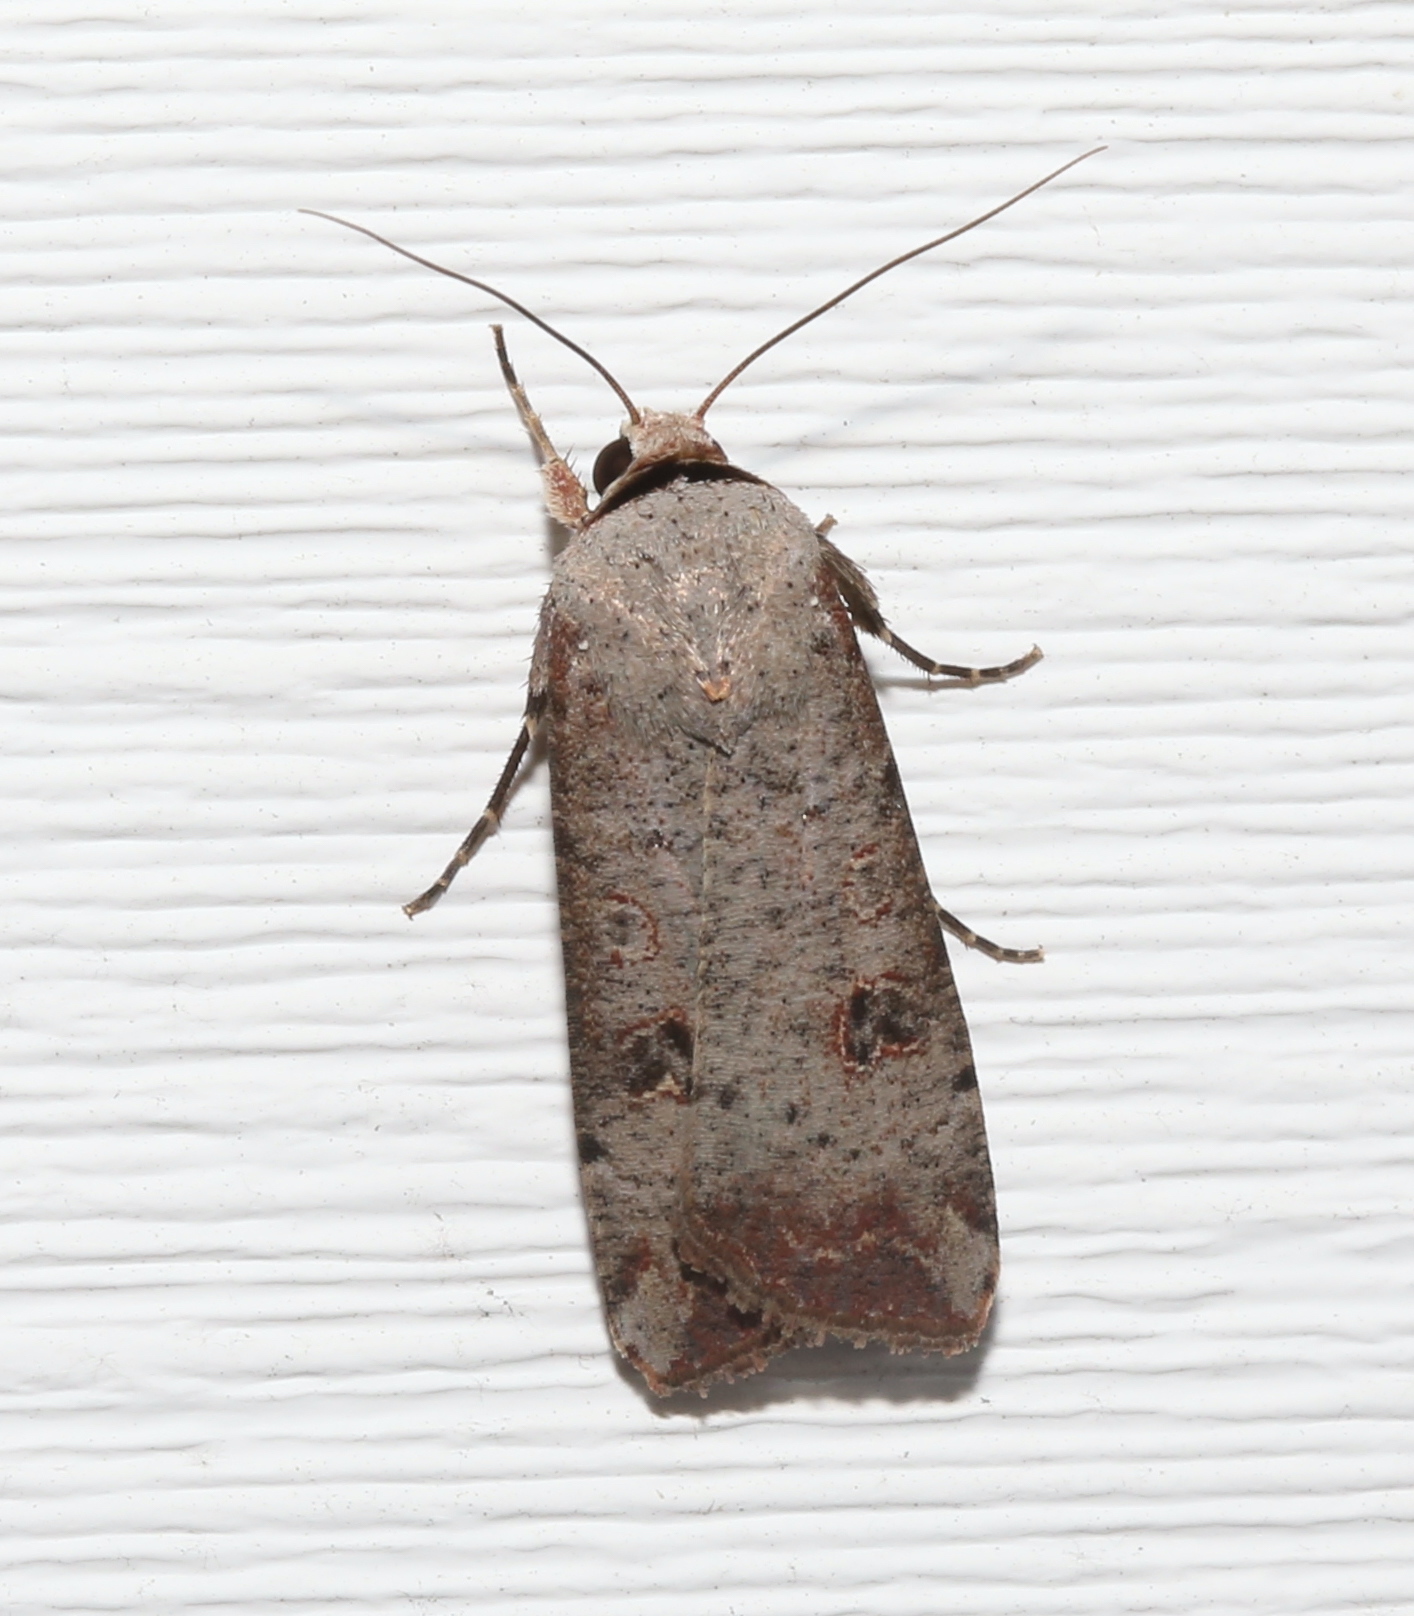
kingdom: Animalia
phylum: Arthropoda
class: Insecta
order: Lepidoptera
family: Noctuidae
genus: Anicla
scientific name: Anicla infecta
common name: Green cutworm
